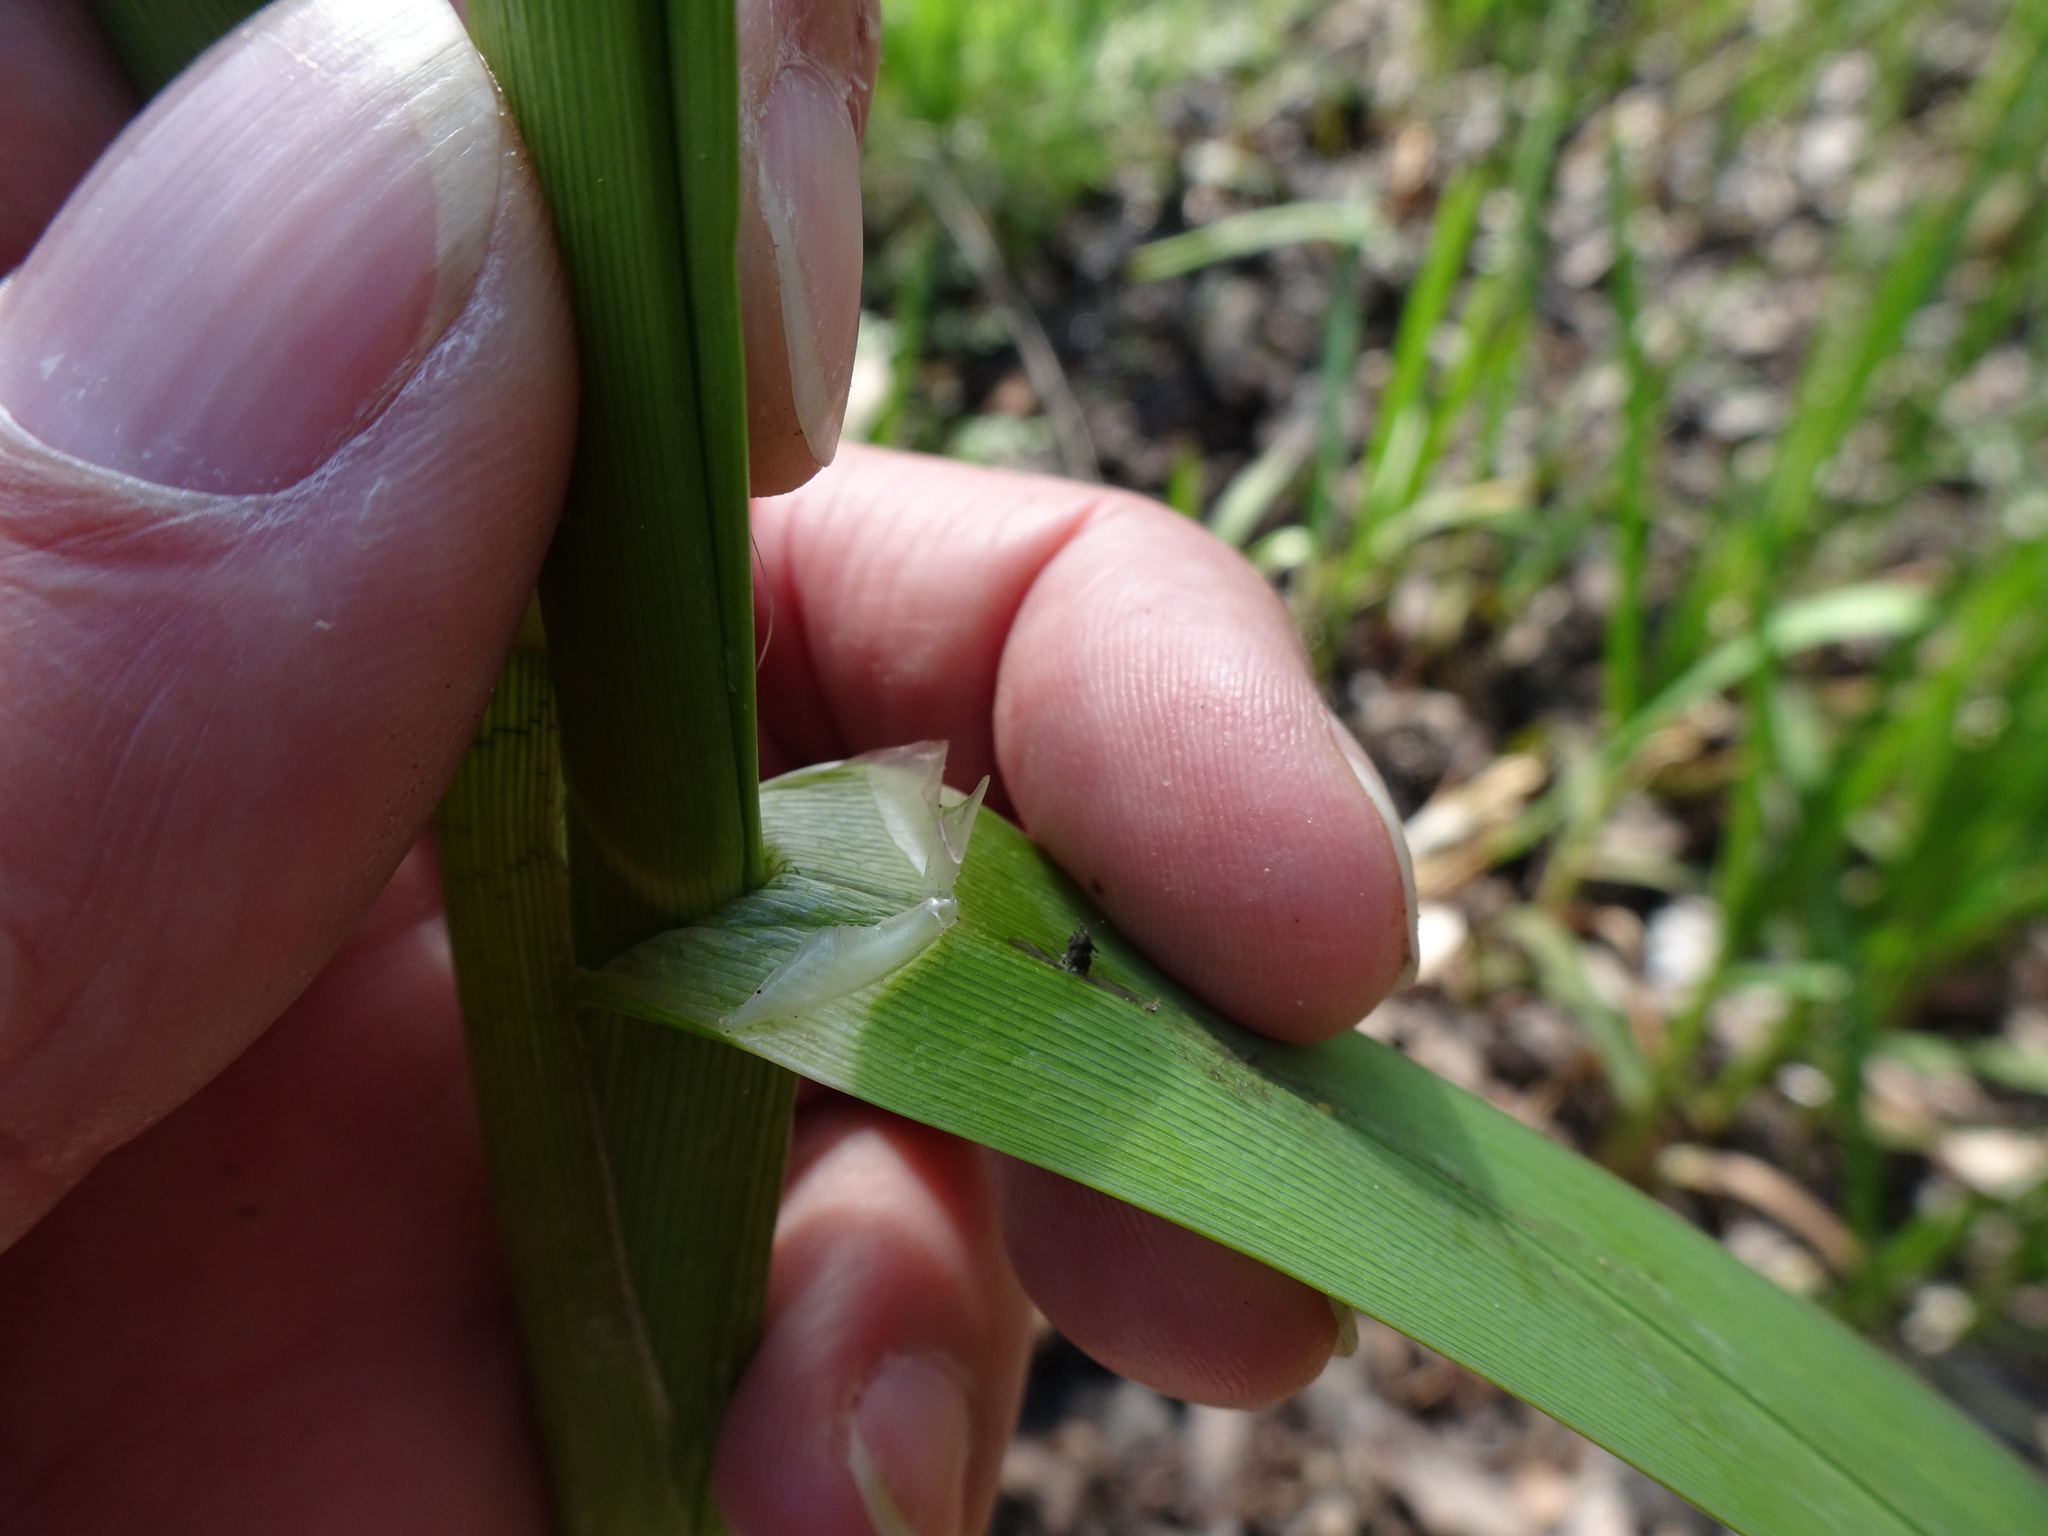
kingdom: Plantae
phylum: Tracheophyta
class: Liliopsida
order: Poales
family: Poaceae
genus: Glyceria
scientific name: Glyceria maxima
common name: Reed mannagrass
